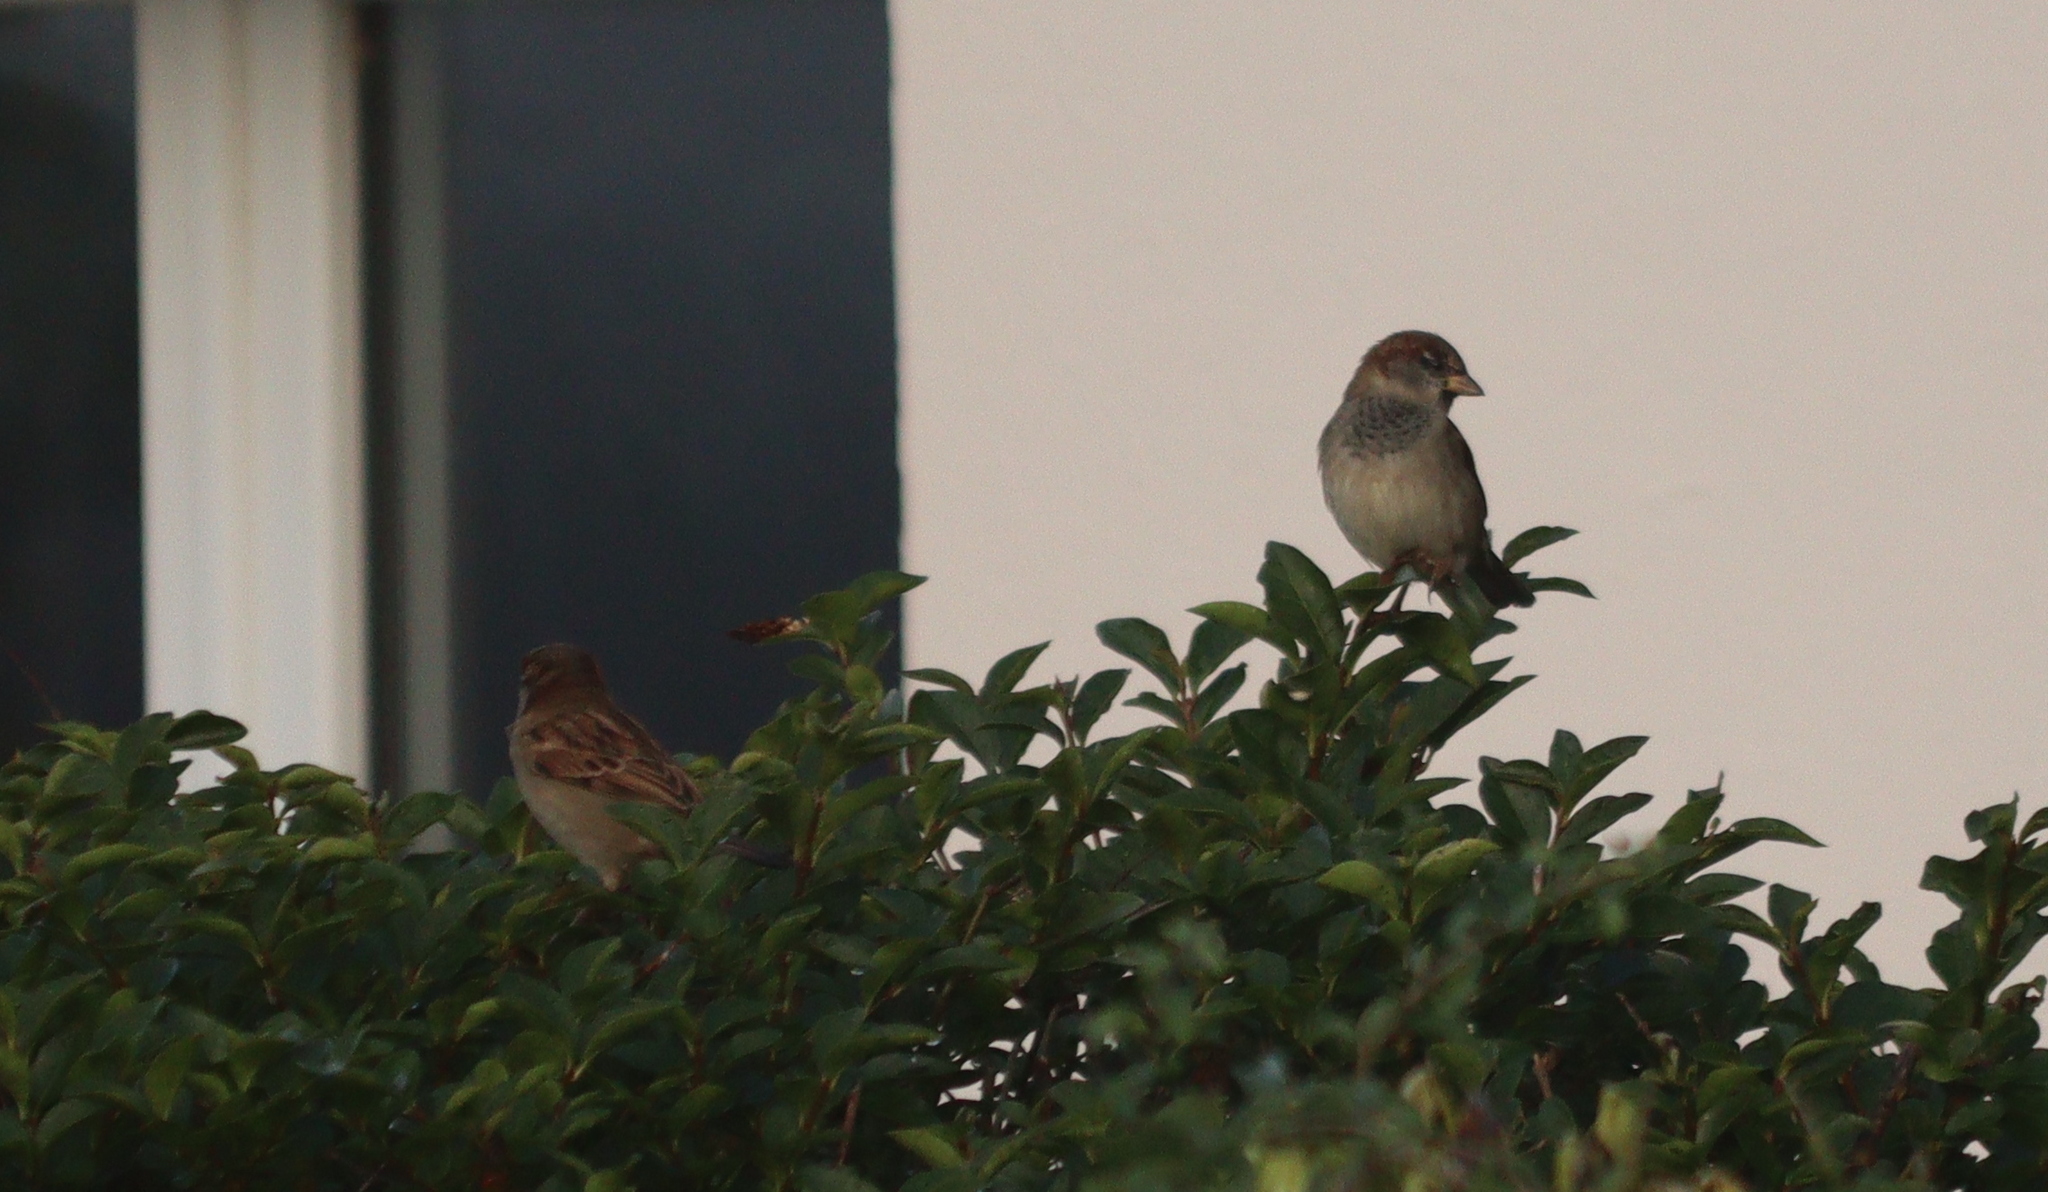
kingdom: Animalia
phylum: Chordata
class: Aves
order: Passeriformes
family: Passeridae
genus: Passer
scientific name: Passer domesticus
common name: House sparrow
